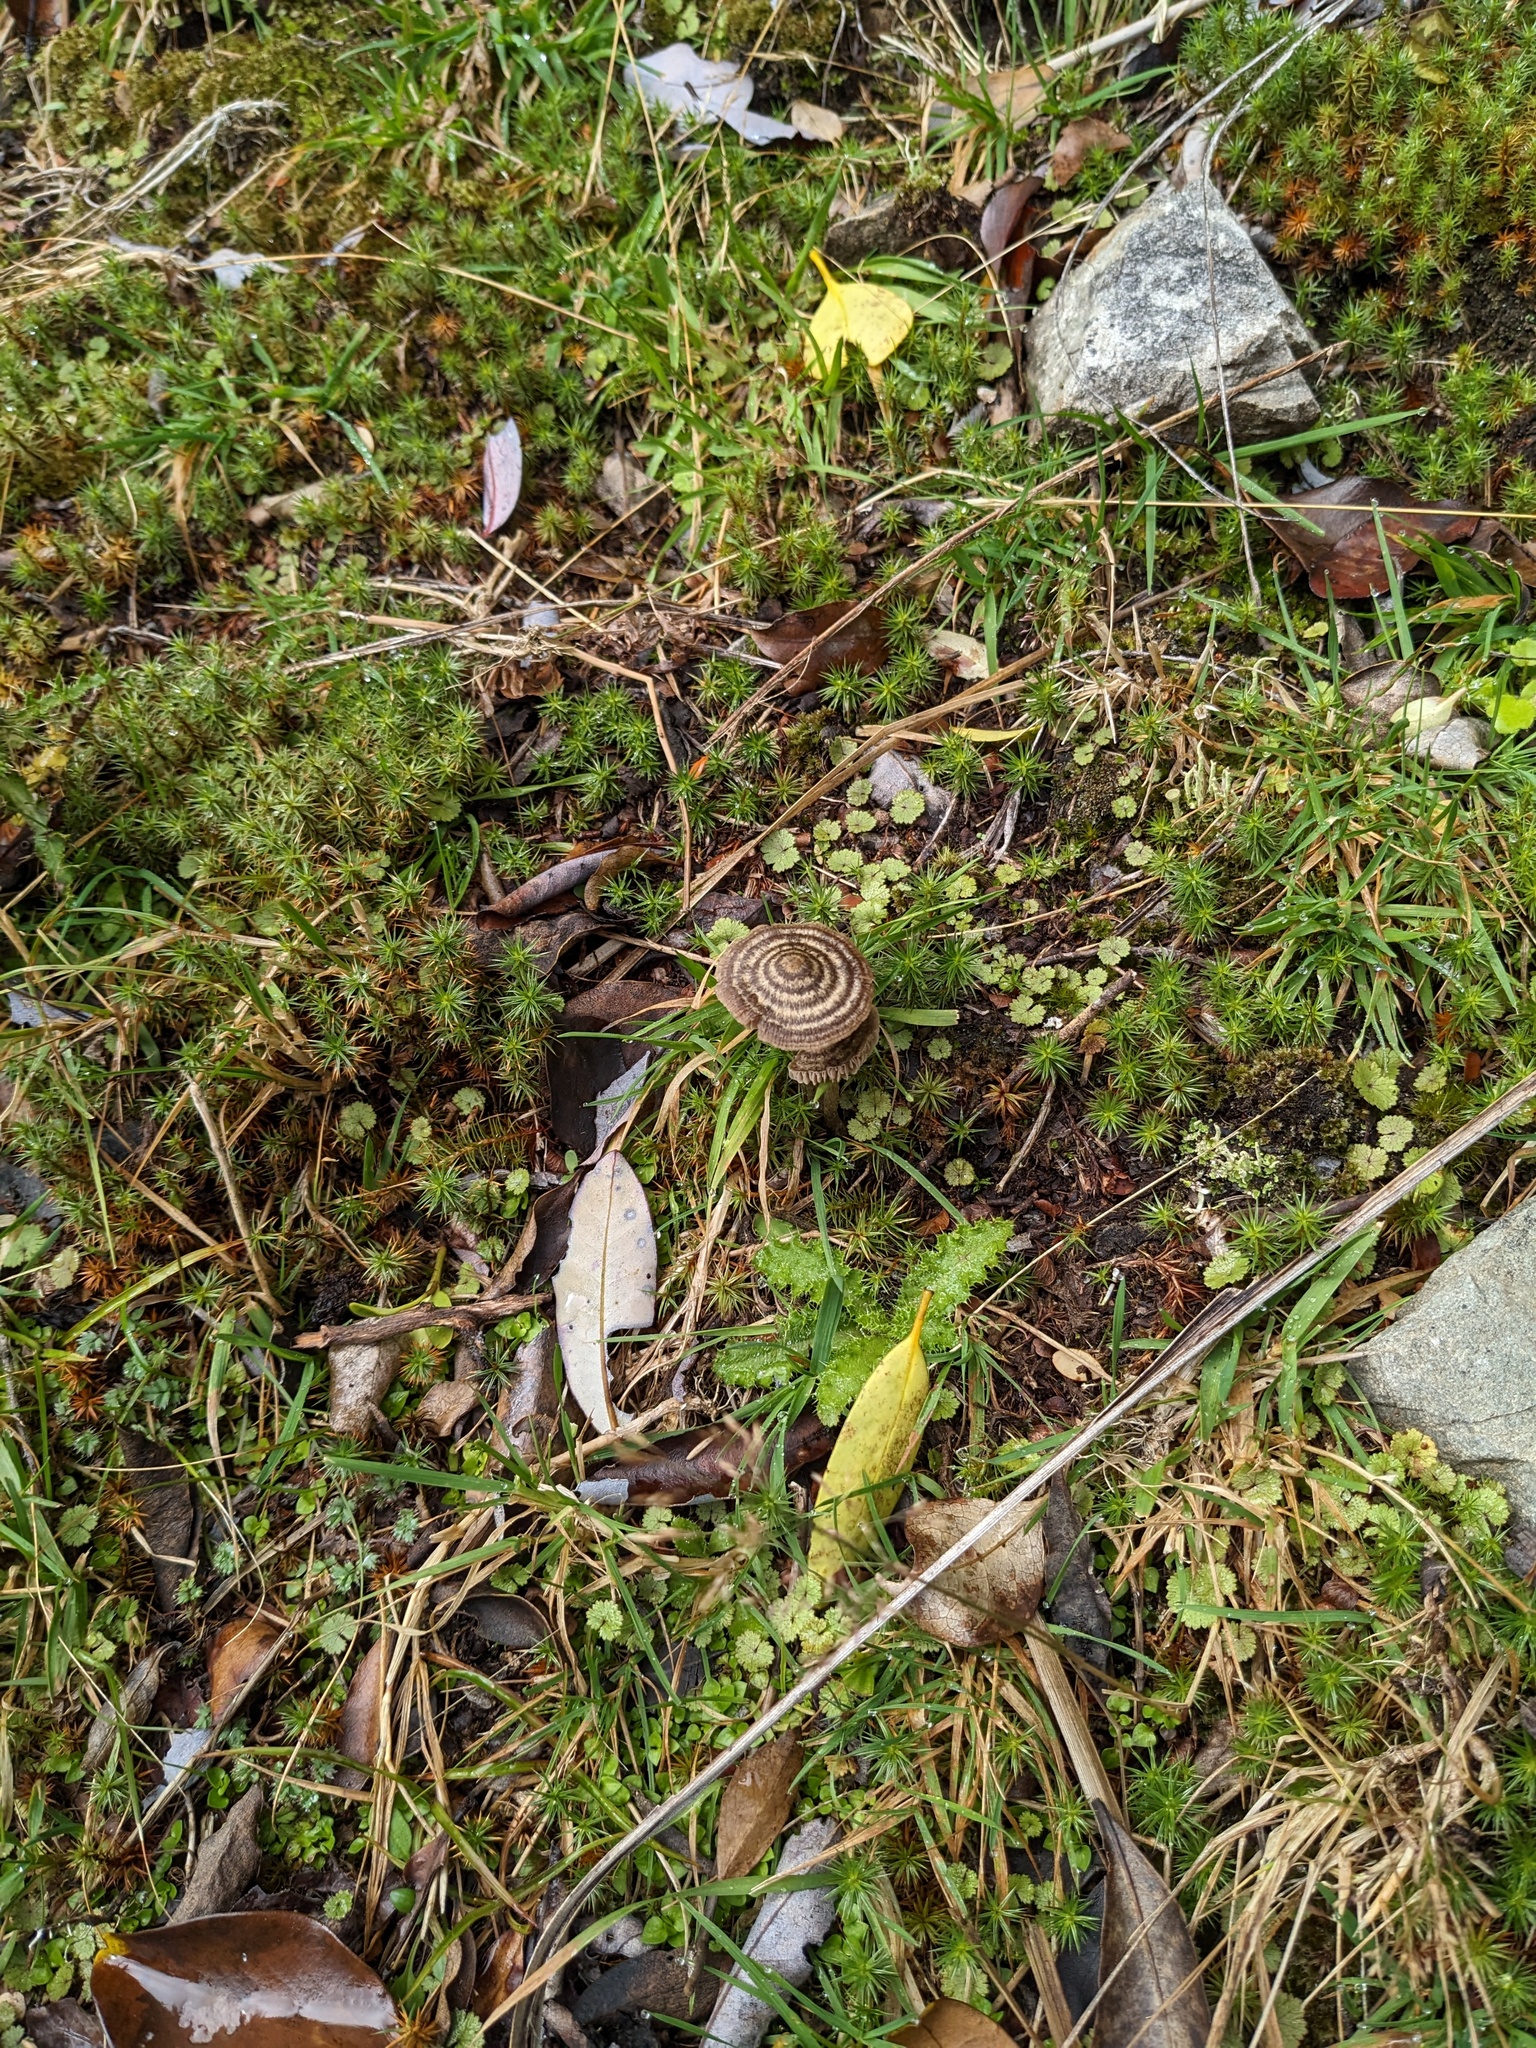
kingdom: Fungi
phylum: Basidiomycota
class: Agaricomycetes
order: Agaricales
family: Entolomataceae
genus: Entoloma
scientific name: Entoloma perzonatum
